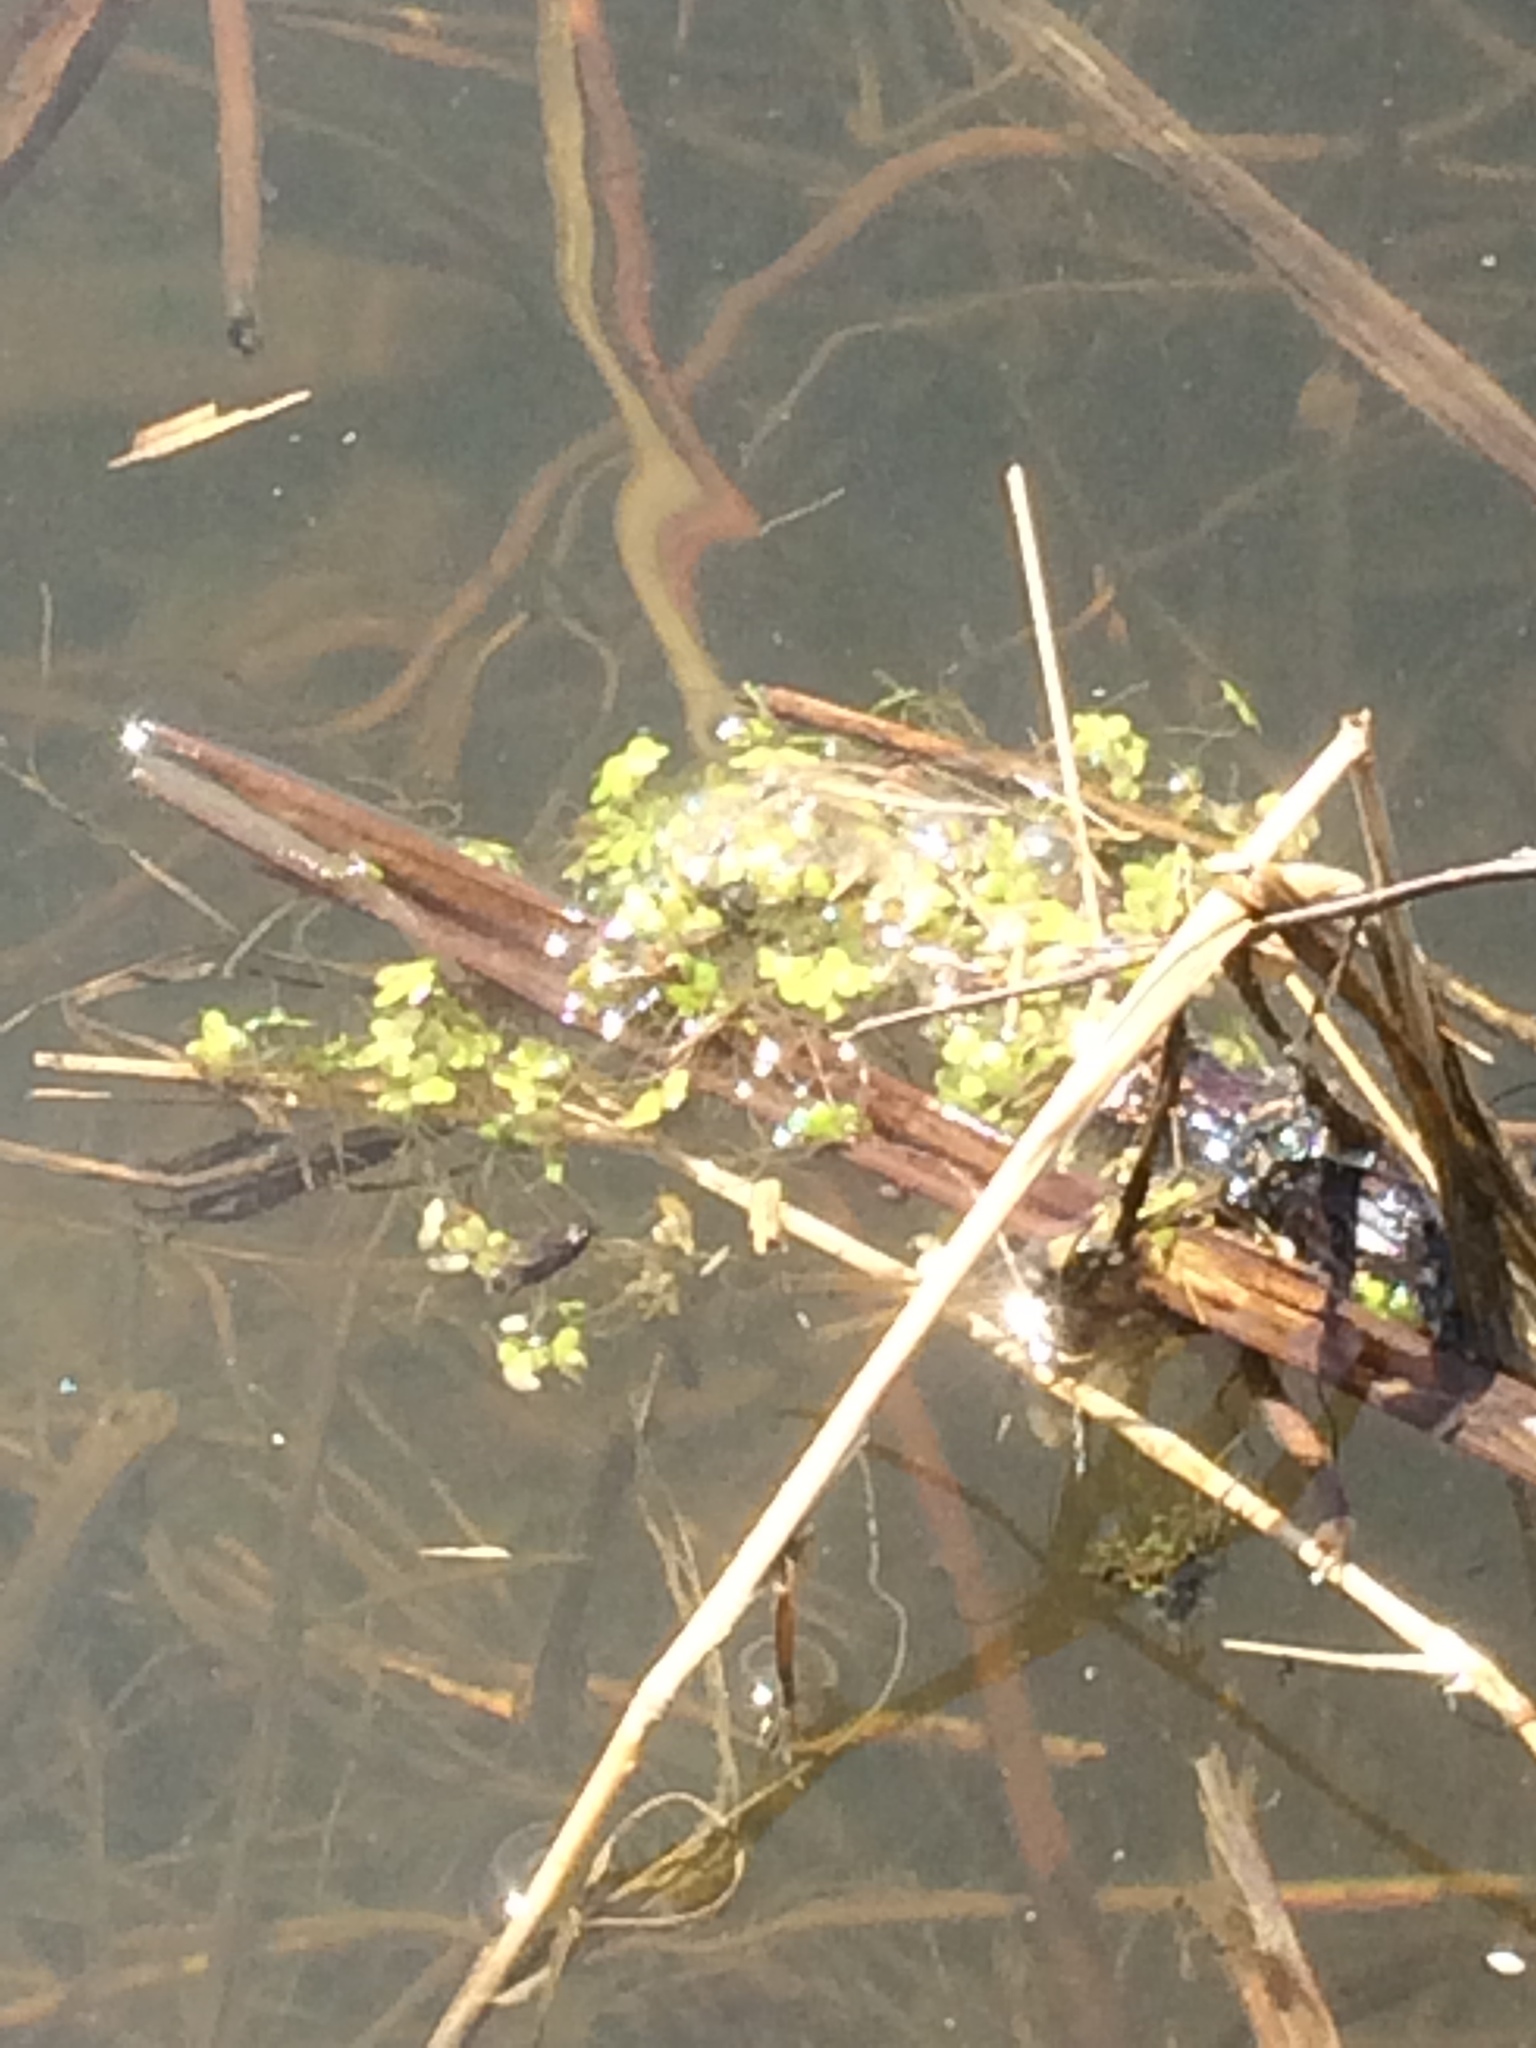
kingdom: Plantae
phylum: Tracheophyta
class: Liliopsida
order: Alismatales
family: Araceae
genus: Lemna
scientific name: Lemna minor
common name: Common duckweed
